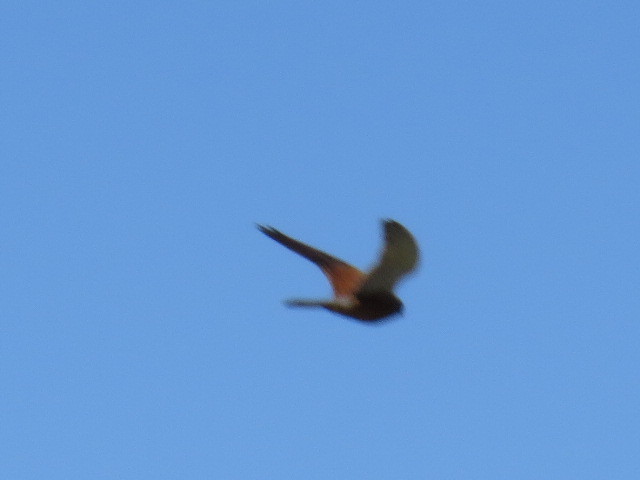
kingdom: Animalia
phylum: Chordata
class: Aves
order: Falconiformes
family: Falconidae
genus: Falco
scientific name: Falco rupicolus
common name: Rock kestrel
